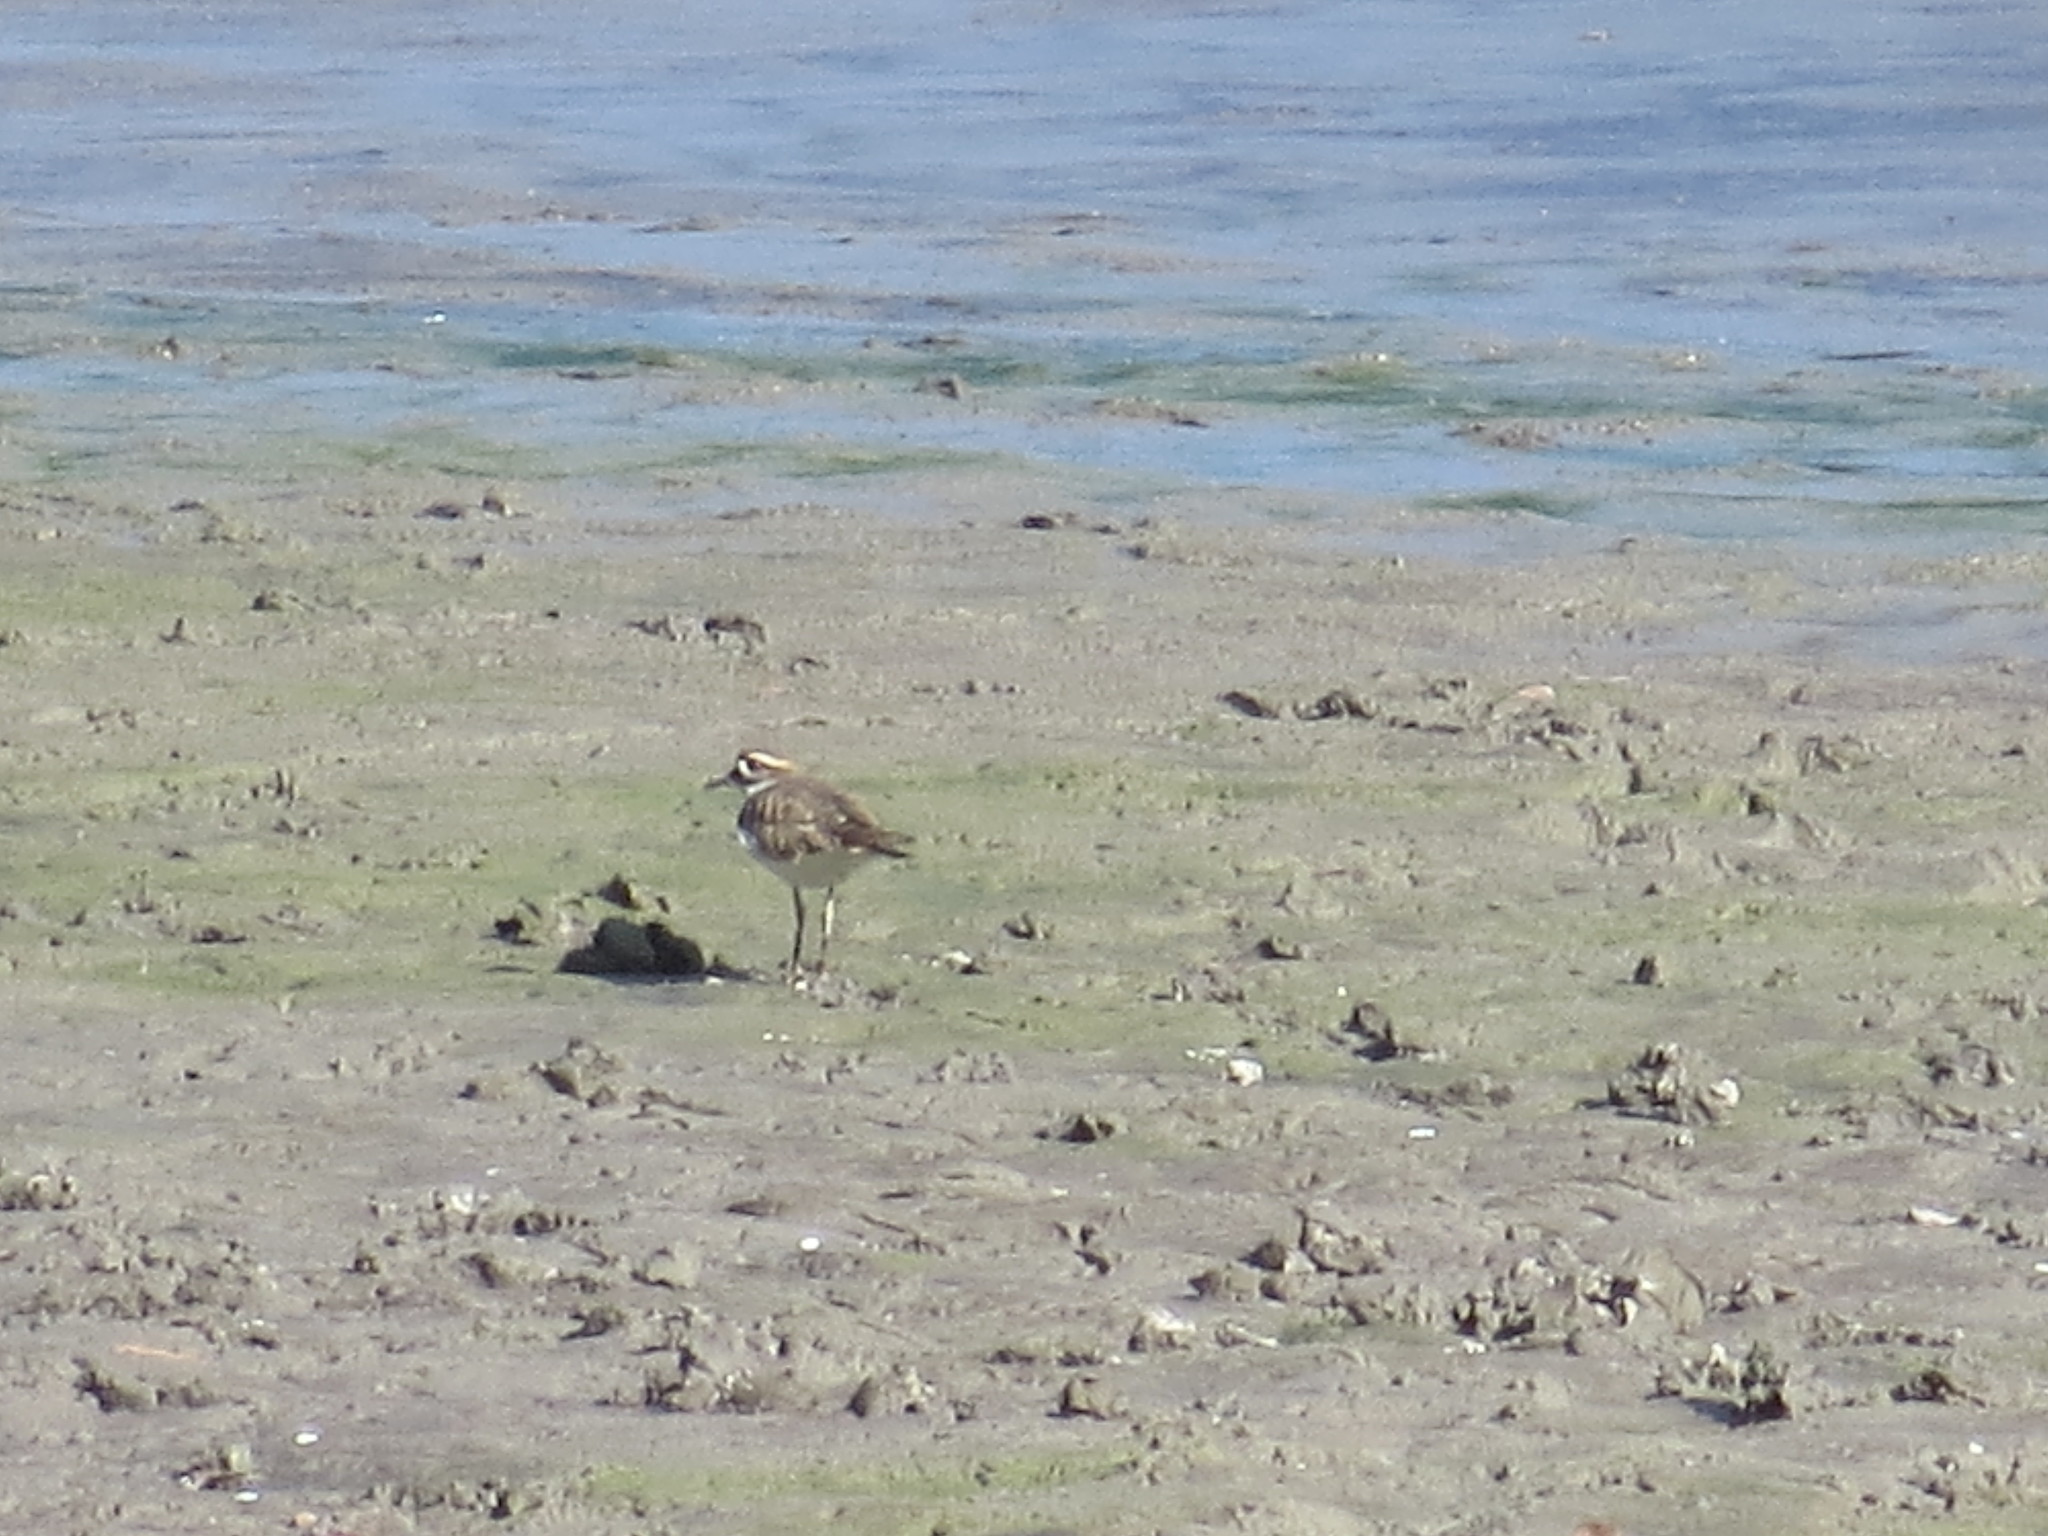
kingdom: Animalia
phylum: Chordata
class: Aves
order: Charadriiformes
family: Charadriidae
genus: Charadrius
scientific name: Charadrius vociferus
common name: Killdeer
